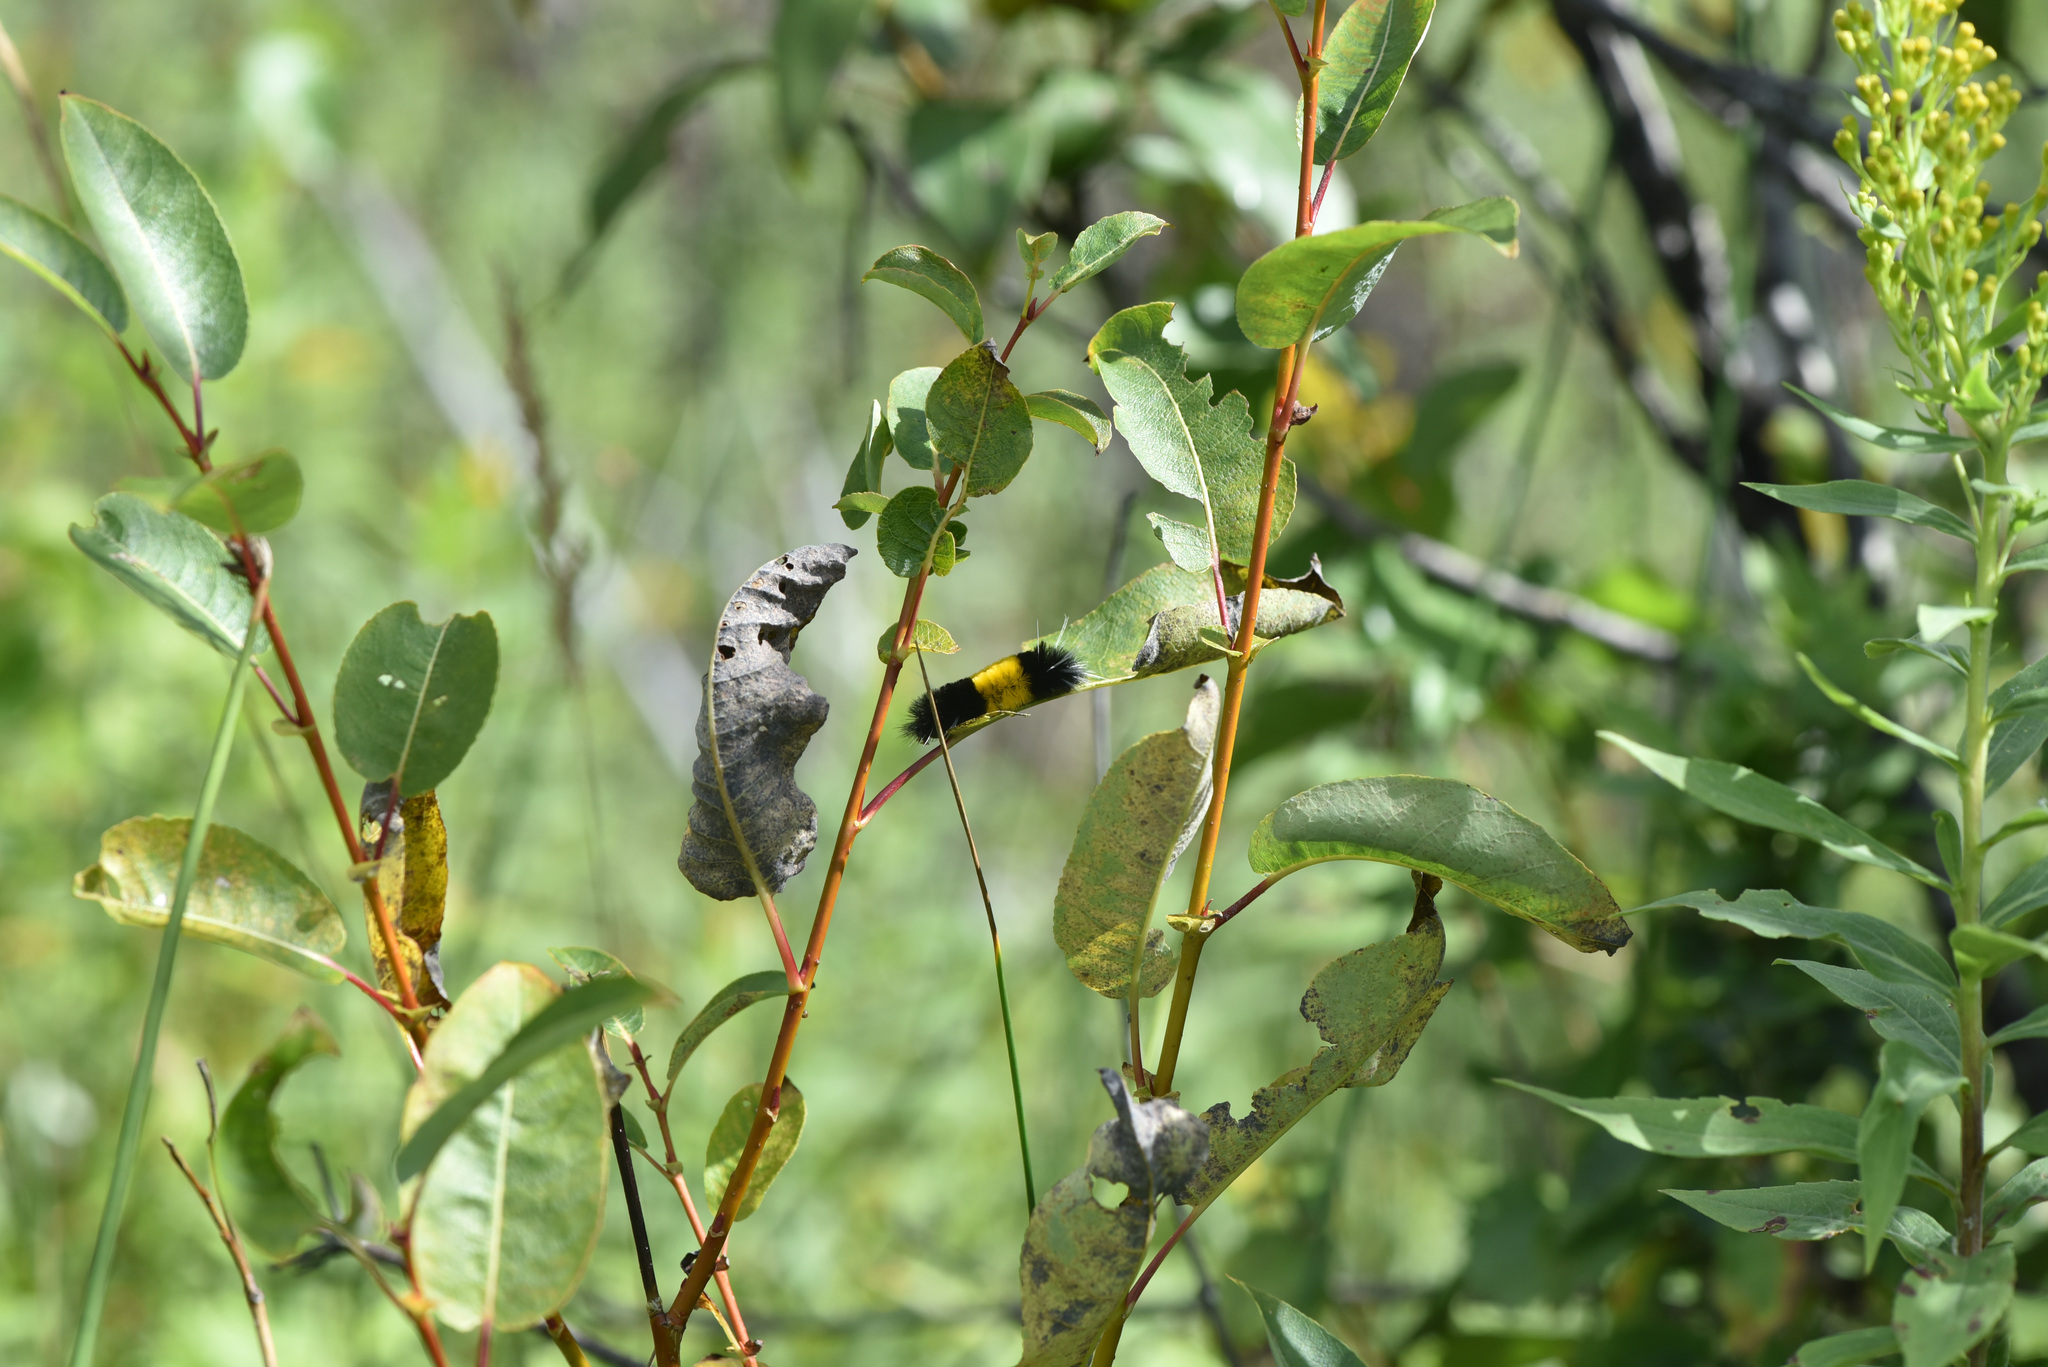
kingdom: Animalia
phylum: Arthropoda
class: Insecta
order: Lepidoptera
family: Erebidae
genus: Lophocampa
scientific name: Lophocampa maculata
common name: Spotted tussock moth
